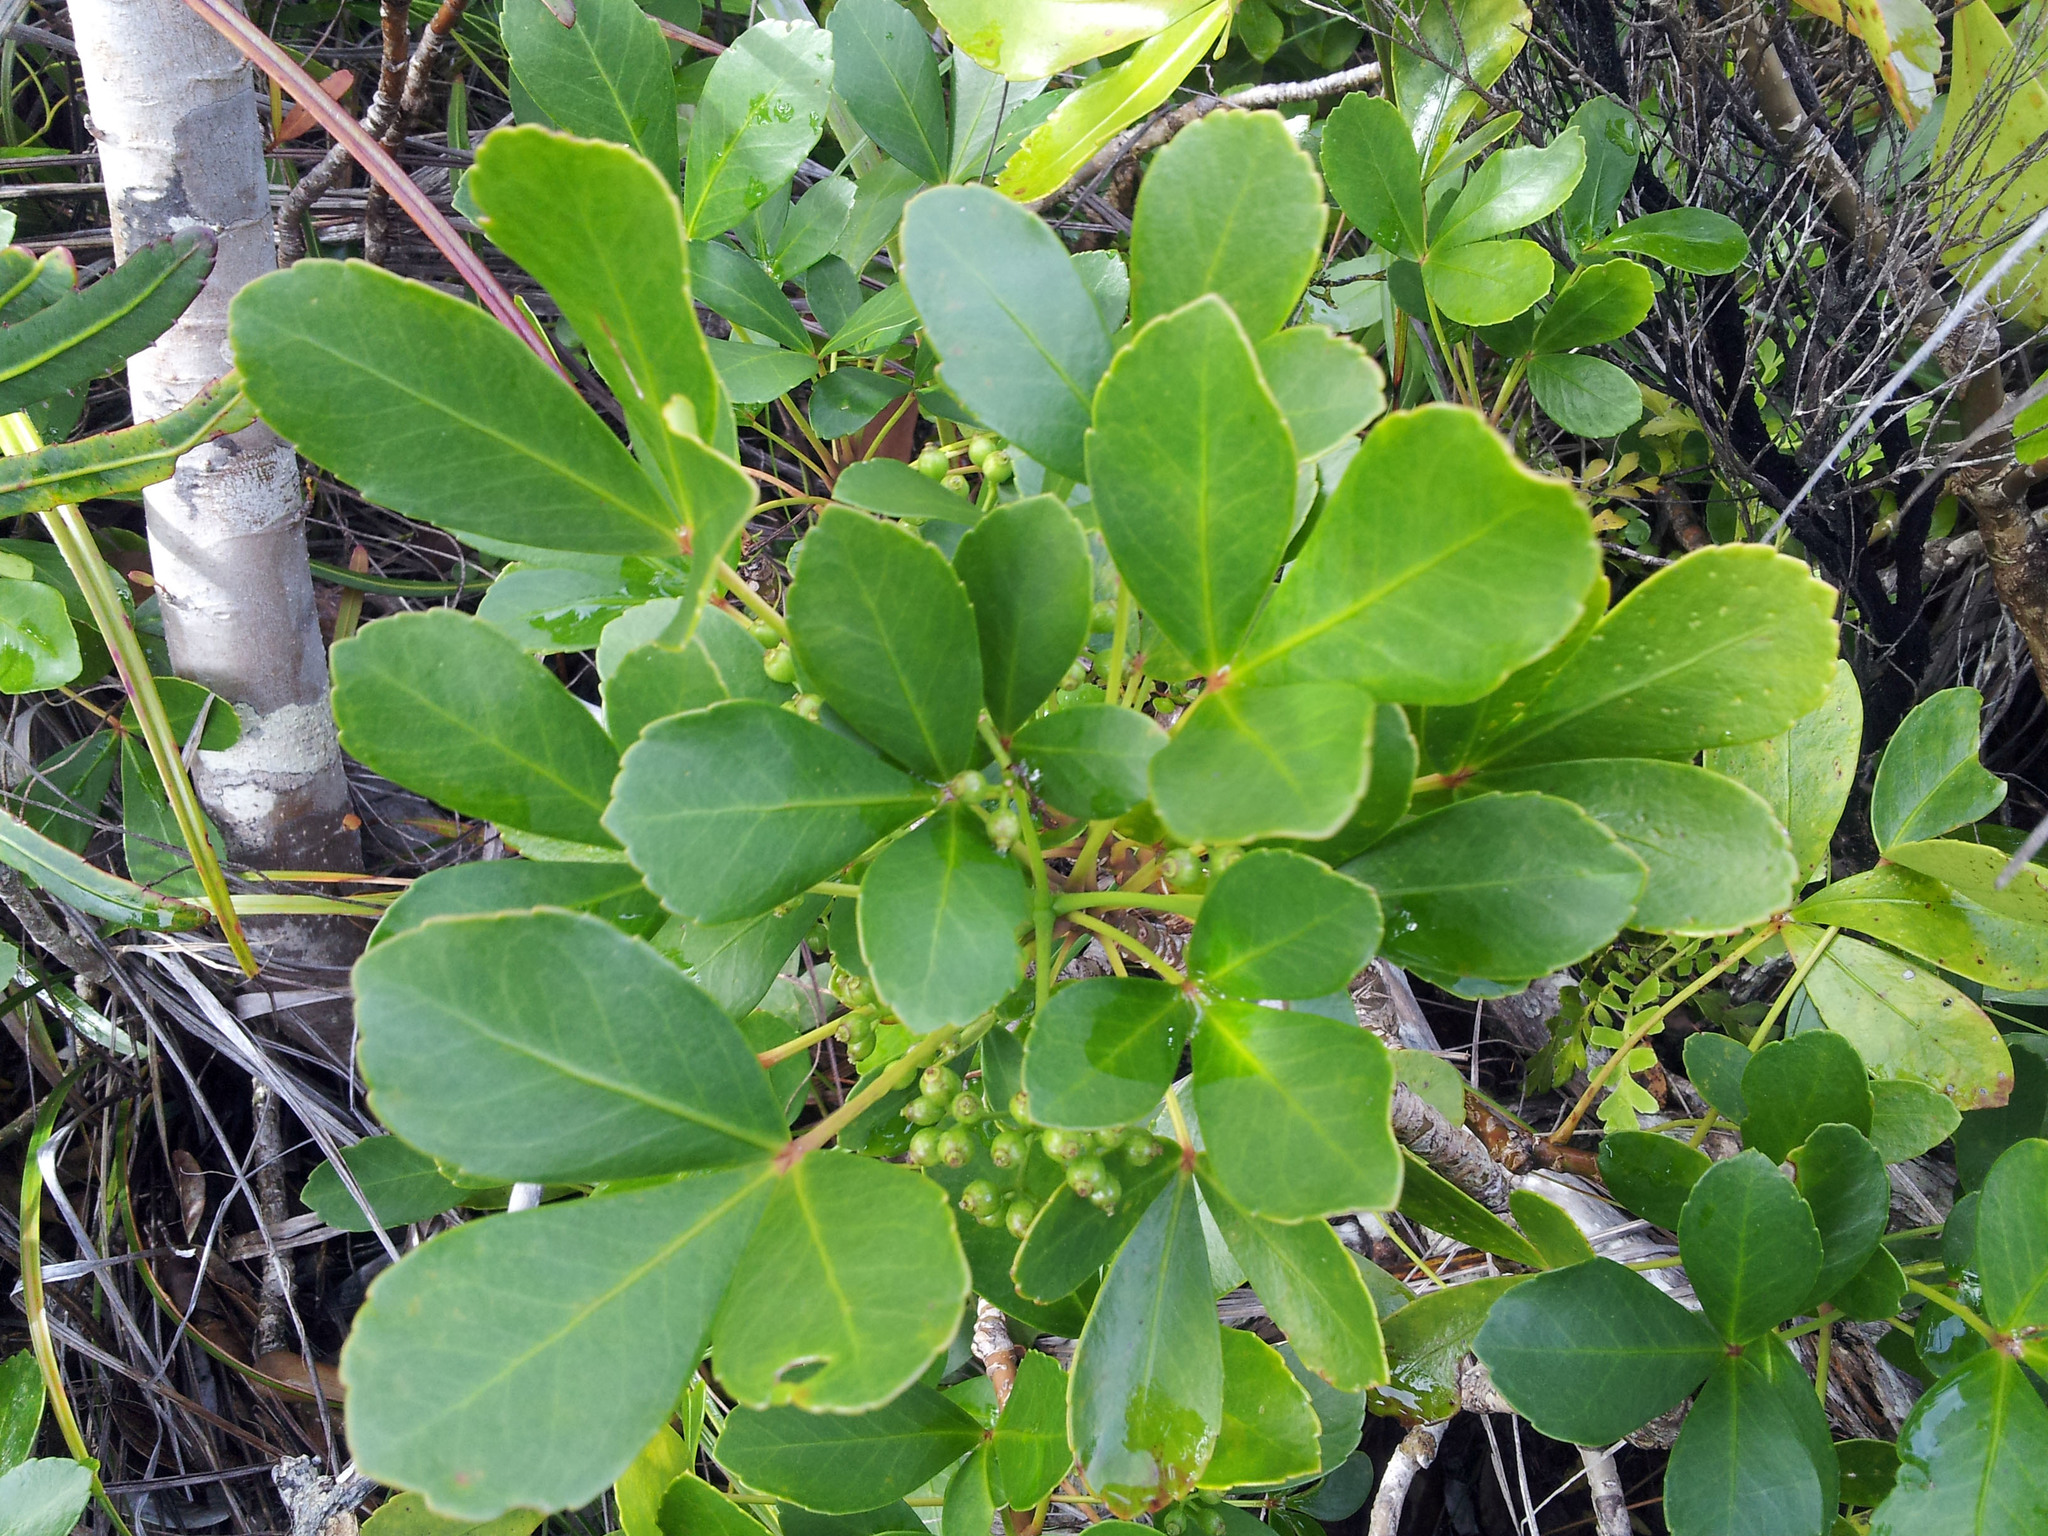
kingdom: Plantae
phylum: Tracheophyta
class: Magnoliopsida
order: Apiales
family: Araliaceae
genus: Pseudopanax
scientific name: Pseudopanax lessonii
